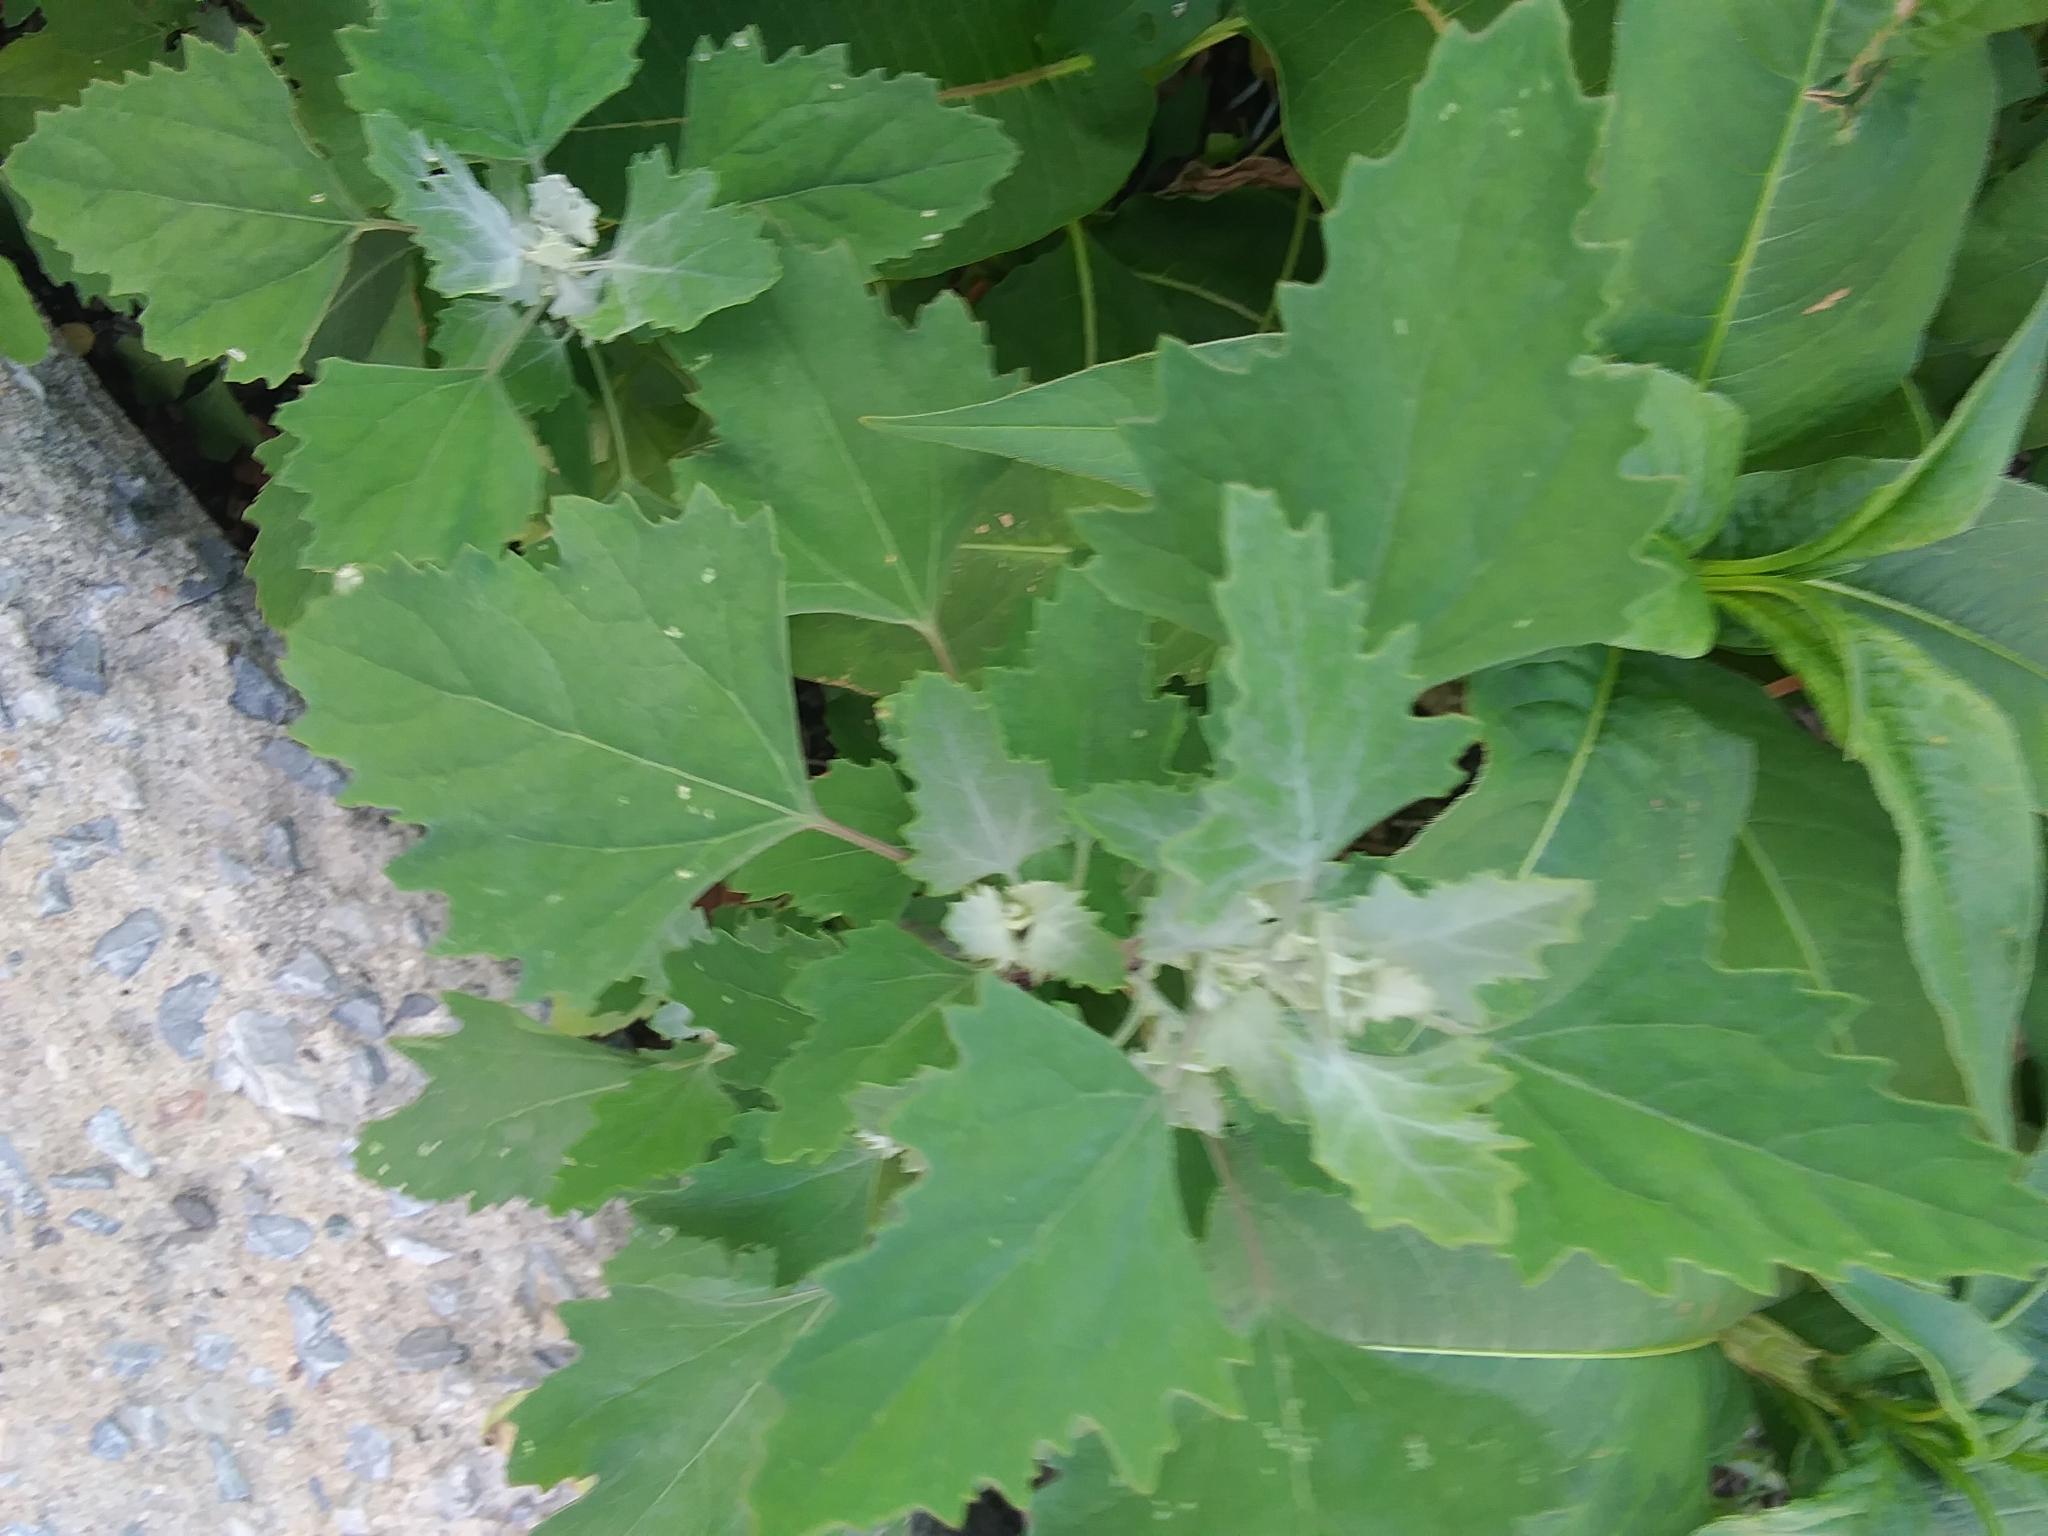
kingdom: Plantae
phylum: Tracheophyta
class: Magnoliopsida
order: Caryophyllales
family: Amaranthaceae
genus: Chenopodium
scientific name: Chenopodium album
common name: Fat-hen
